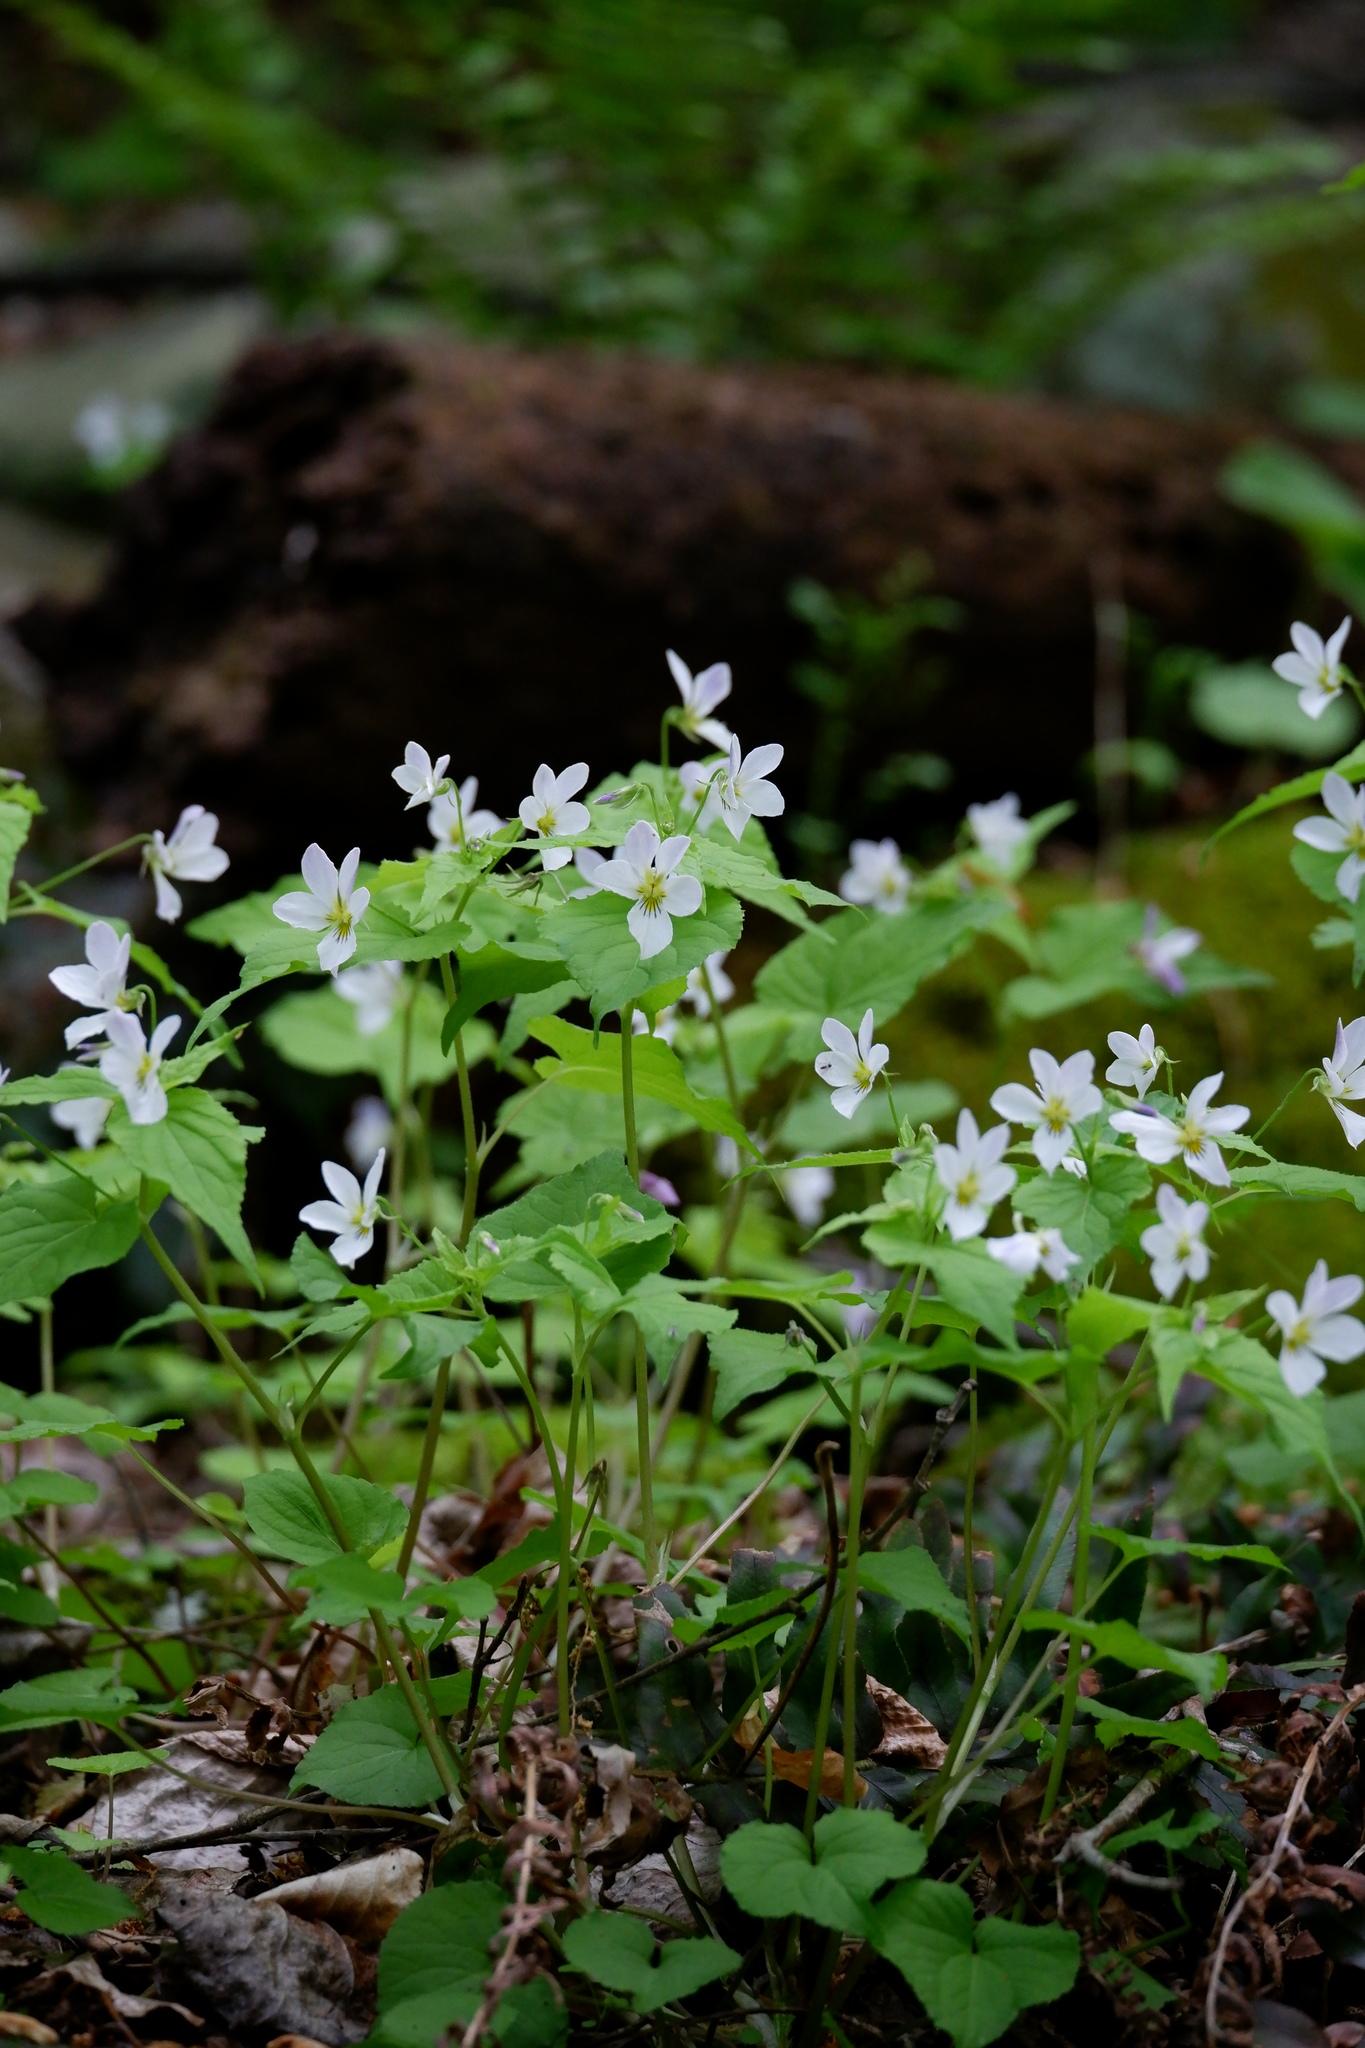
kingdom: Plantae
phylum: Tracheophyta
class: Magnoliopsida
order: Malpighiales
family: Violaceae
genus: Viola
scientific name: Viola canadensis
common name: Canada violet
